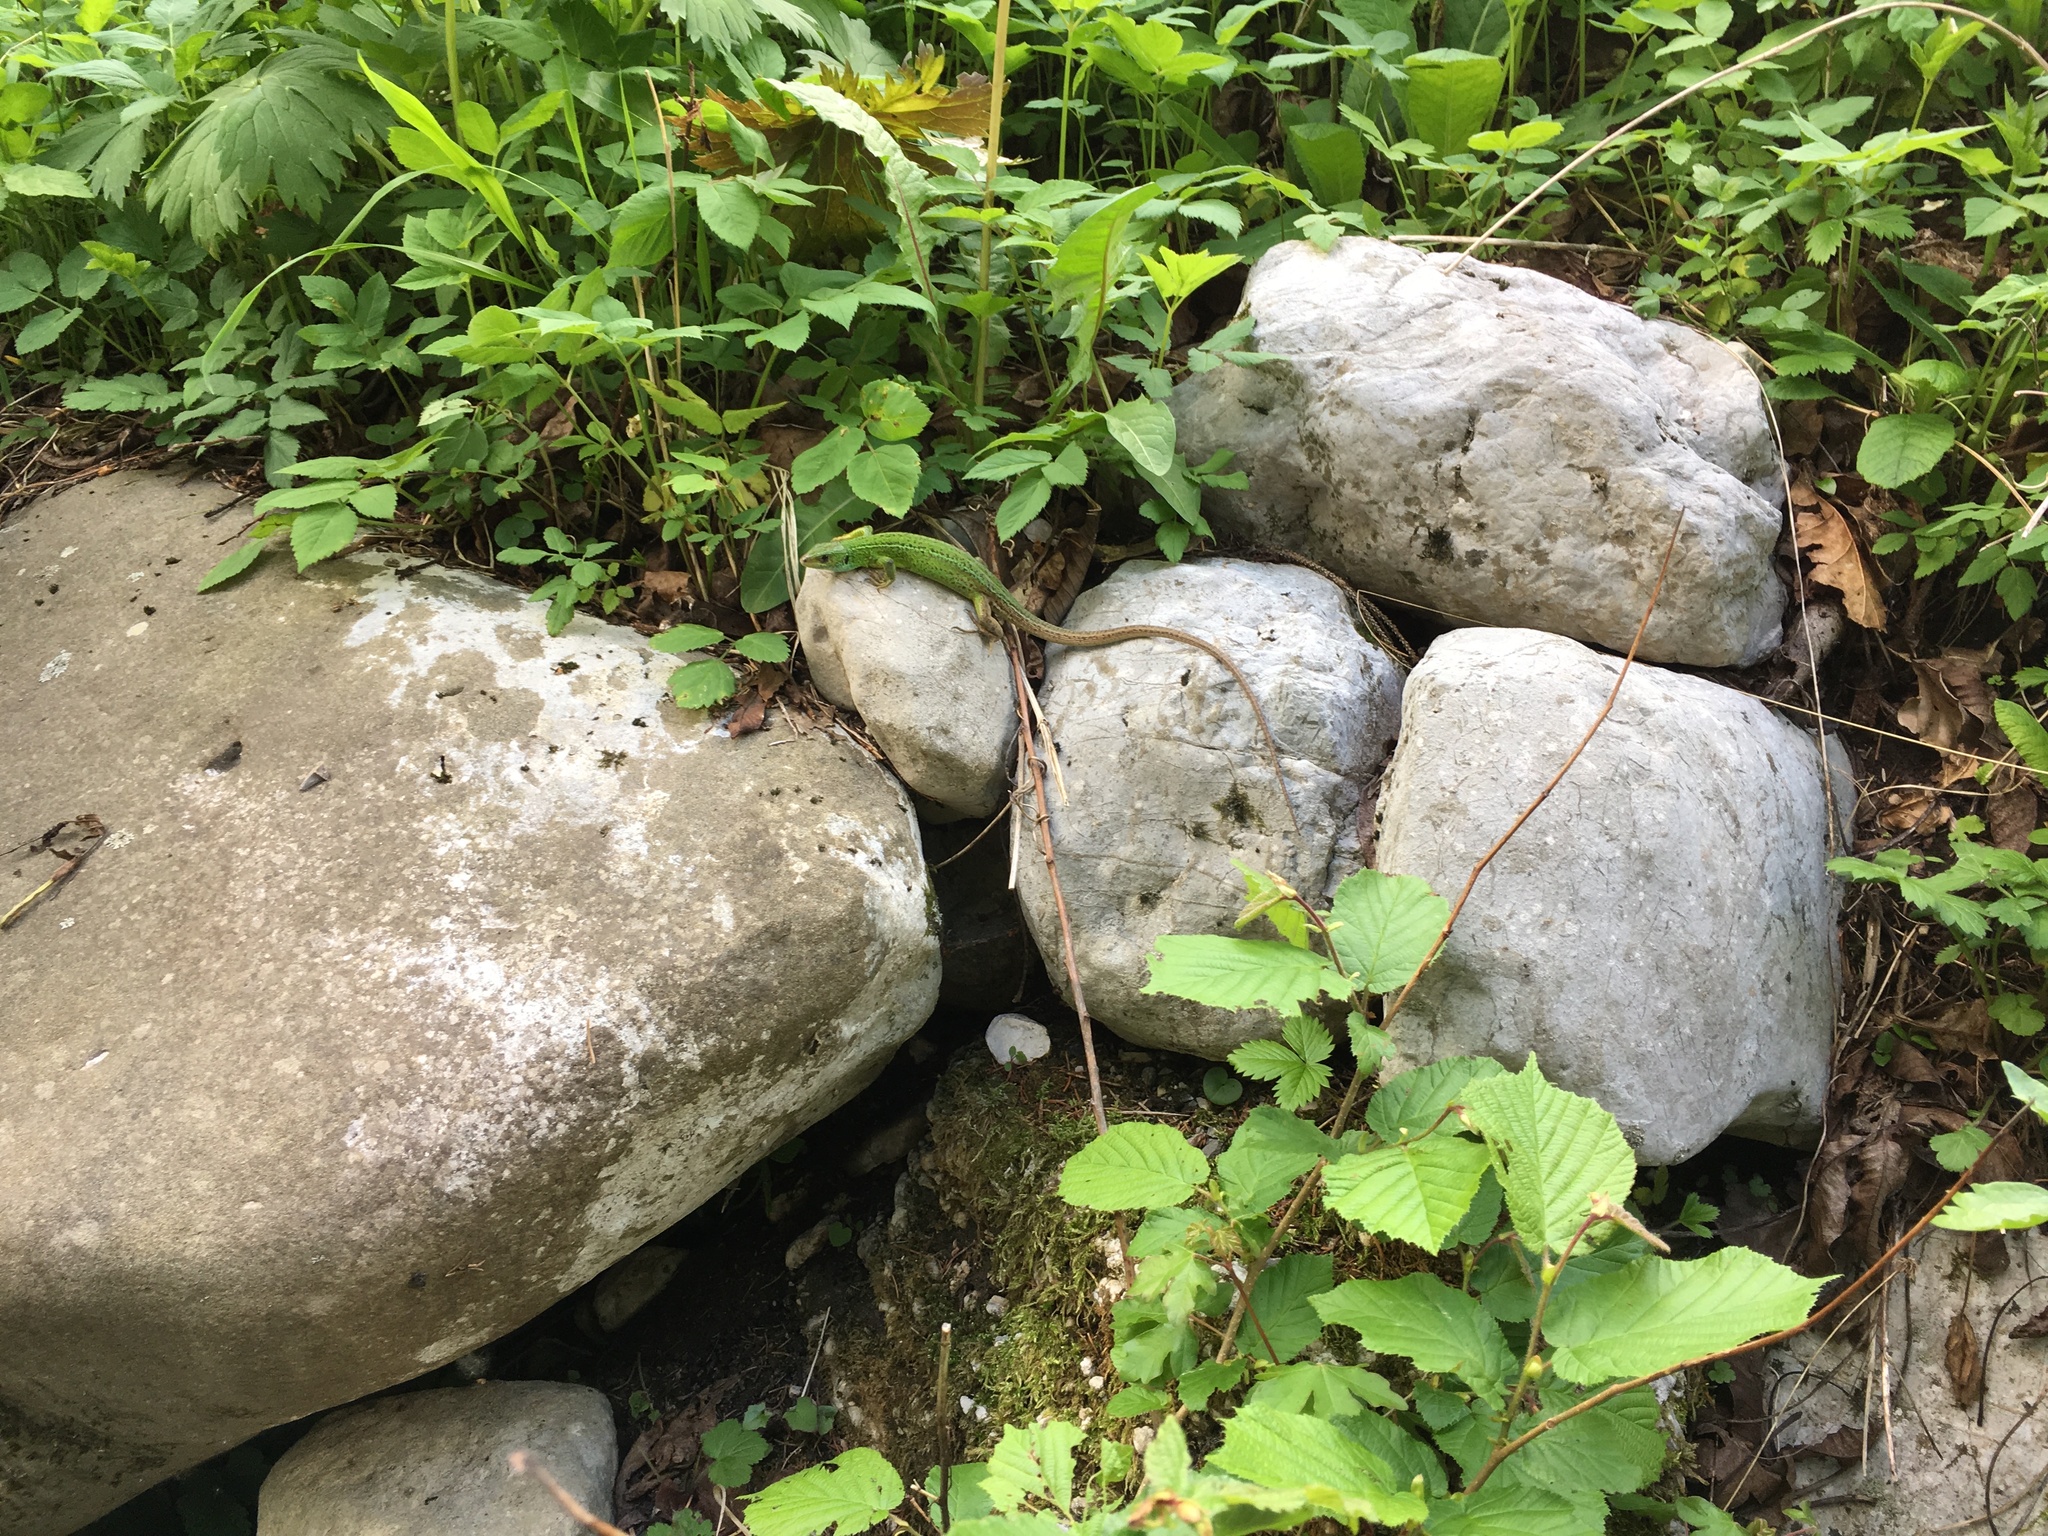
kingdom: Animalia
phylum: Chordata
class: Squamata
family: Lacertidae
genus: Lacerta
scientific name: Lacerta viridis
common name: European green lizard
